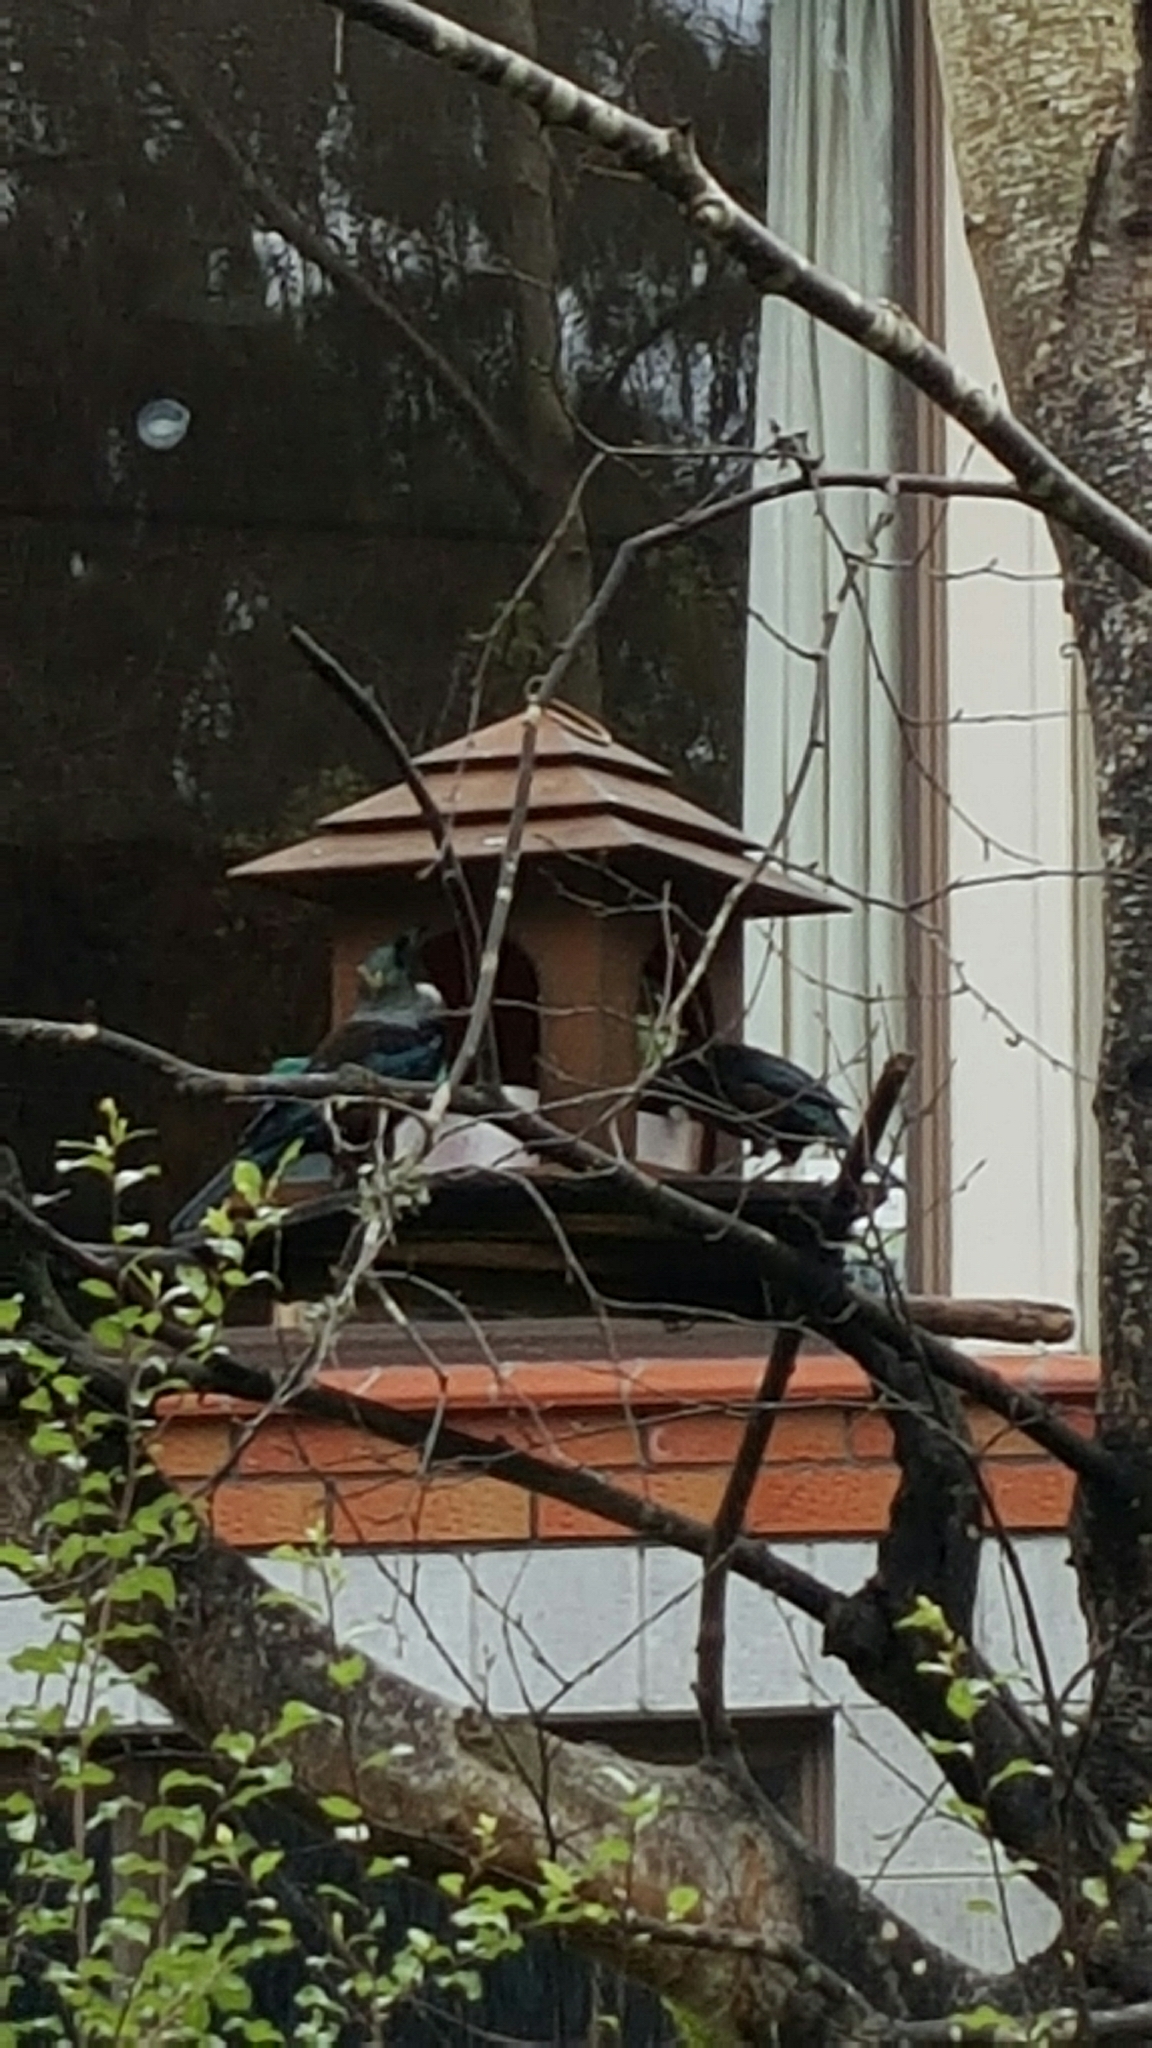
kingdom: Animalia
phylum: Chordata
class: Aves
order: Passeriformes
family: Meliphagidae
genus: Prosthemadera
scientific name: Prosthemadera novaeseelandiae
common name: Tui
